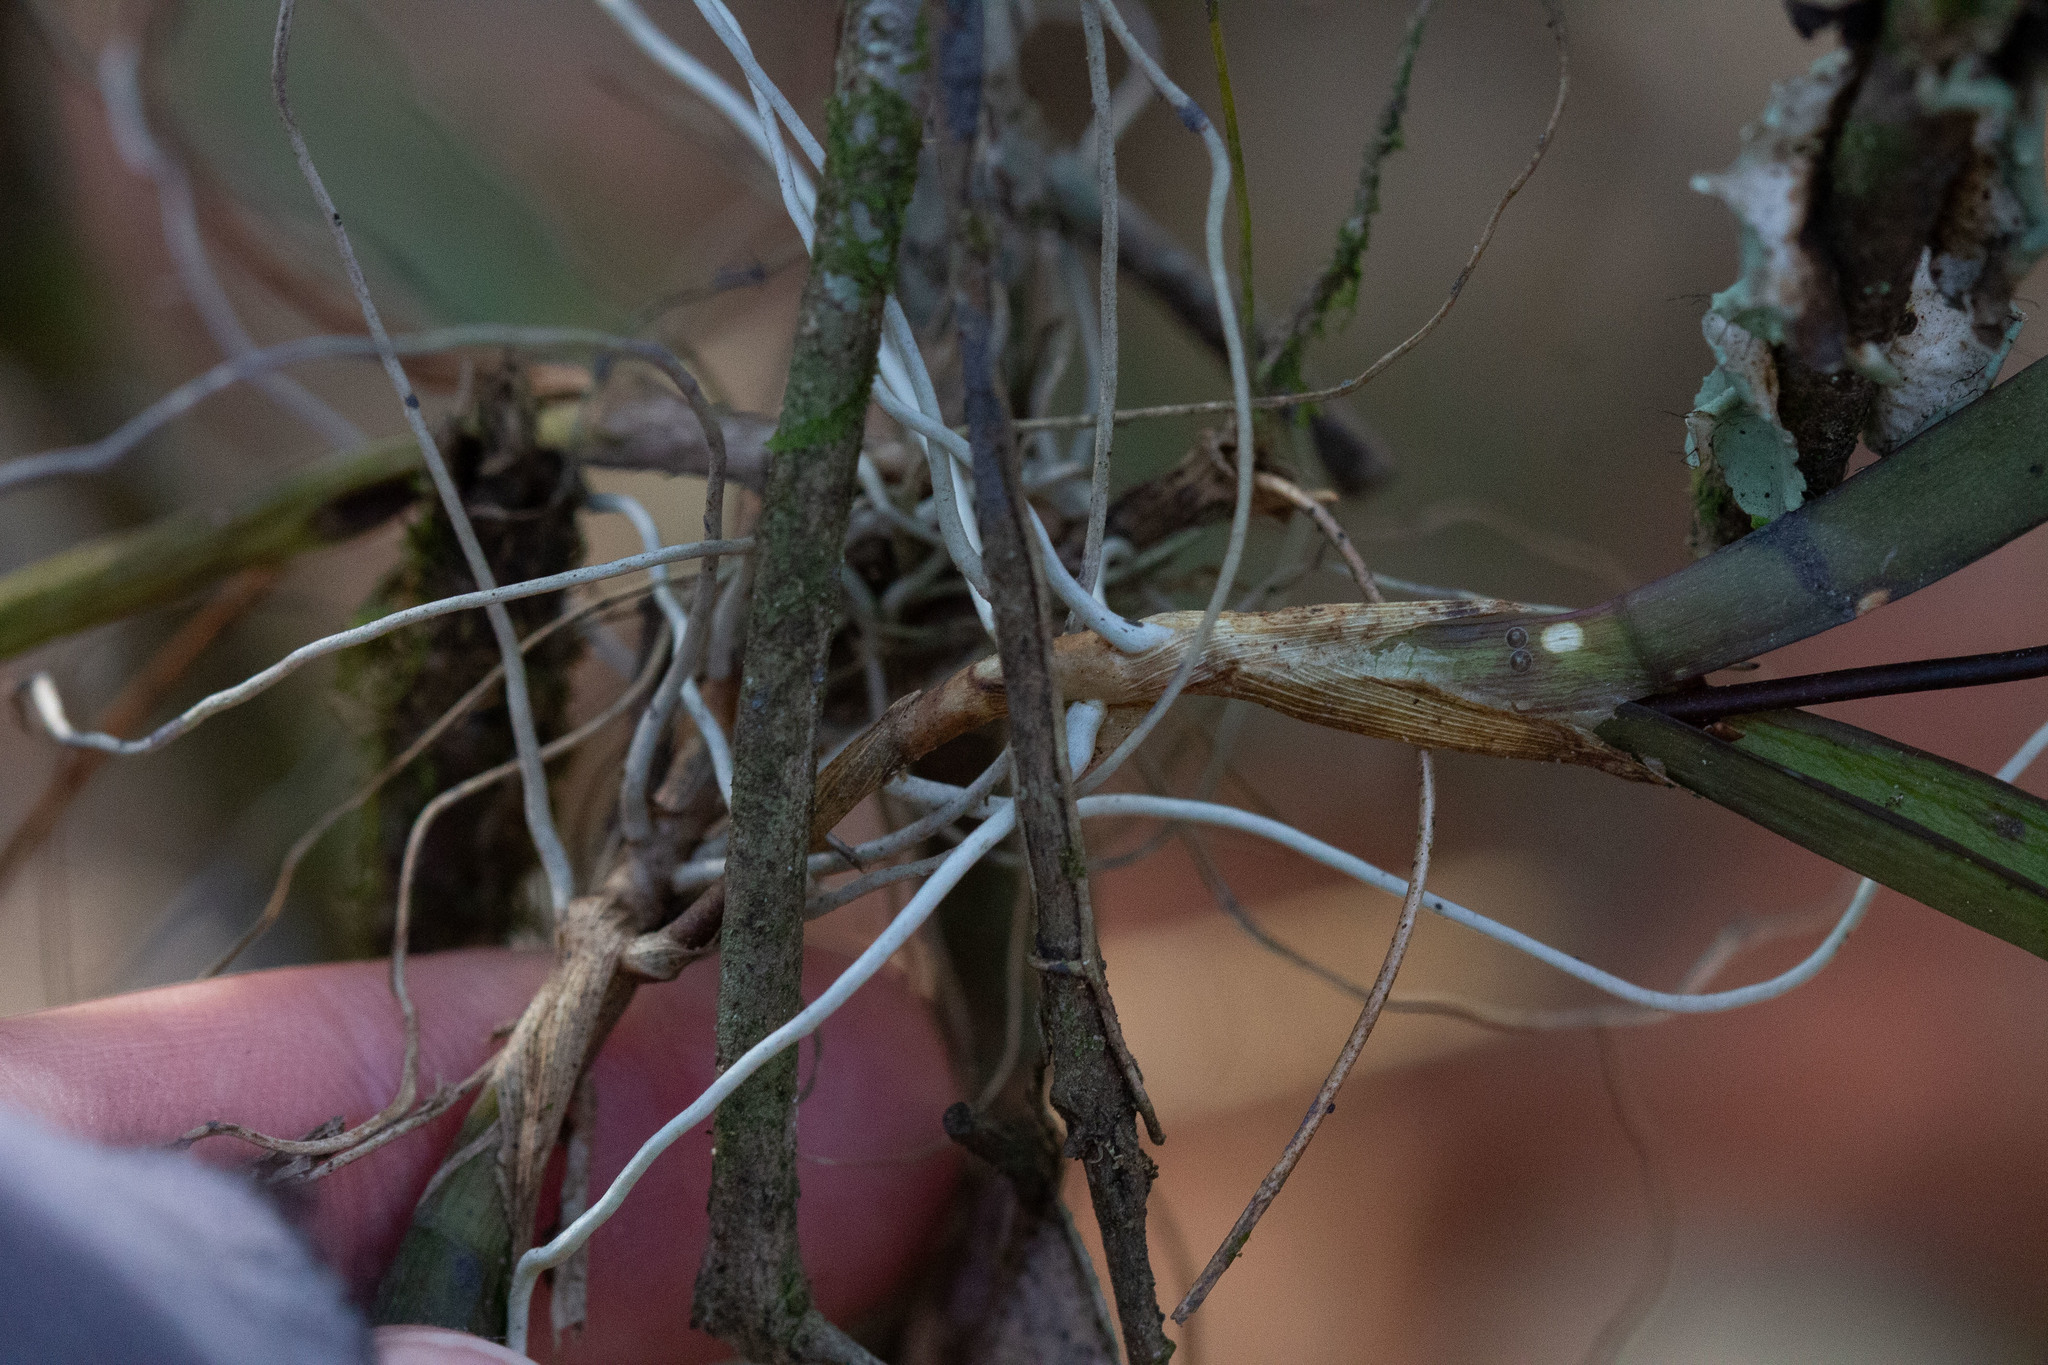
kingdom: Plantae
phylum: Tracheophyta
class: Liliopsida
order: Asparagales
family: Orchidaceae
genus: Ionopsis
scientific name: Ionopsis utricularioides
